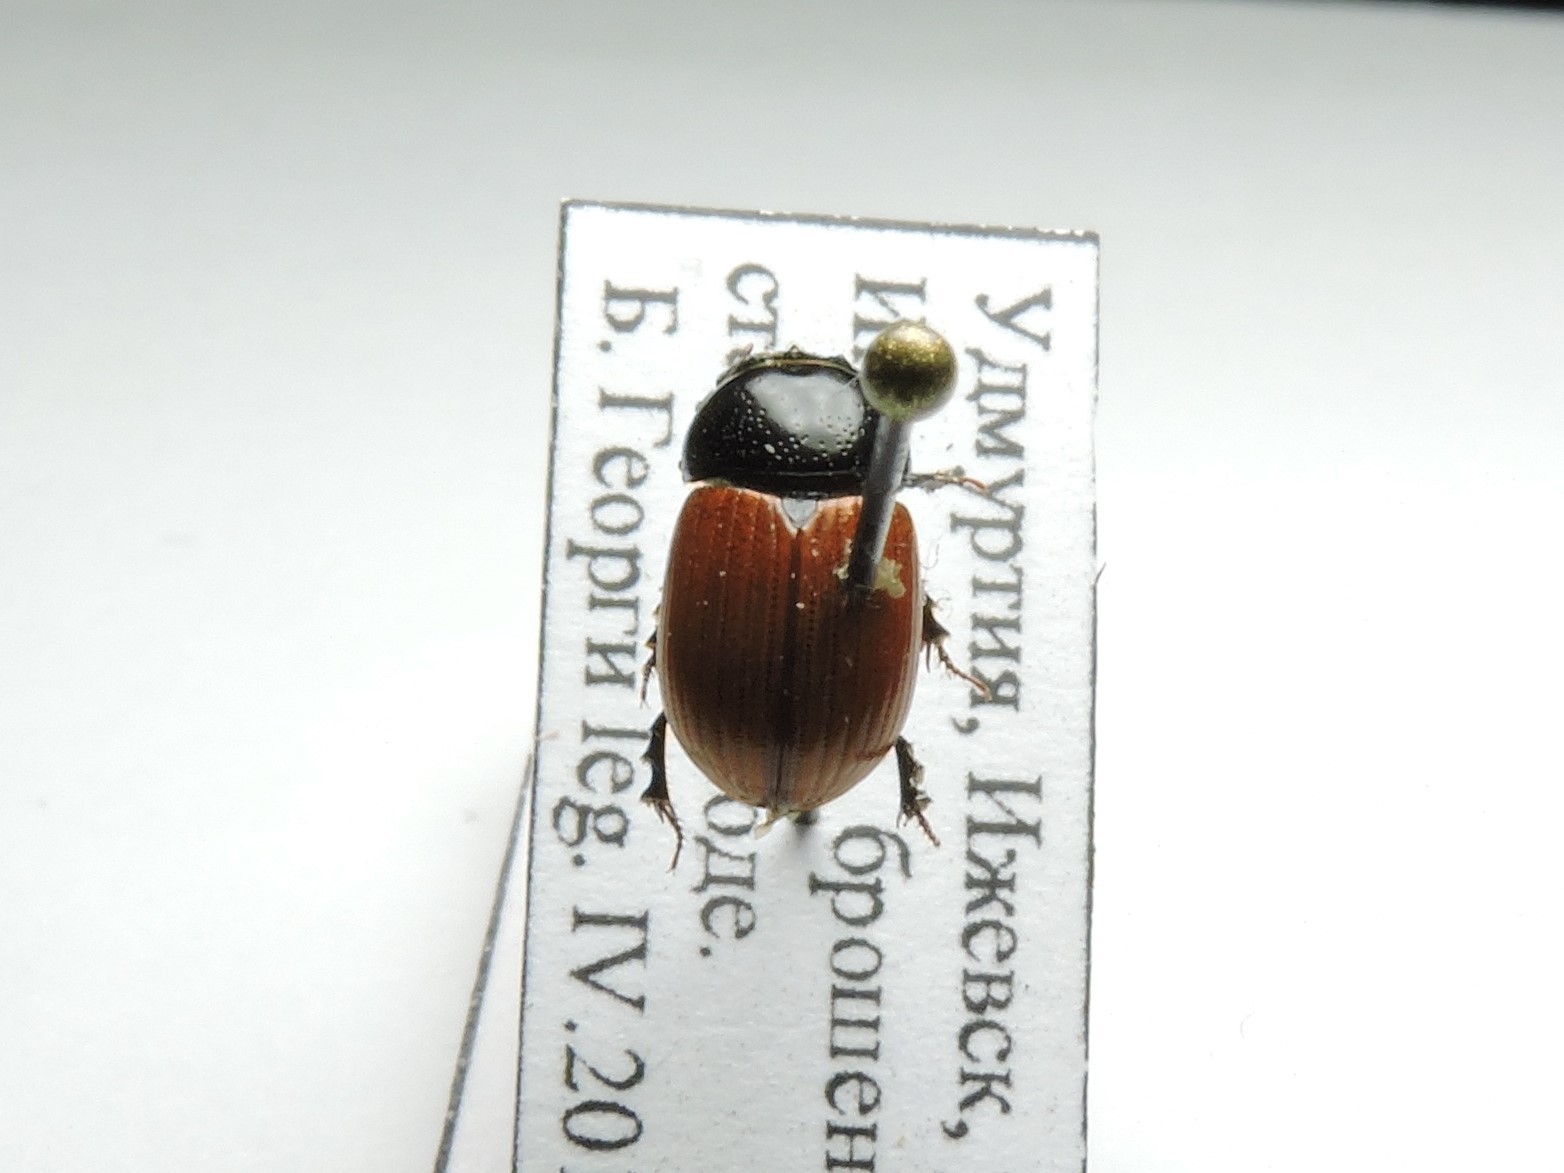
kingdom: Animalia
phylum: Arthropoda
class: Insecta
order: Coleoptera
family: Scarabaeidae
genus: Aphodius
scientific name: Aphodius fimetarius
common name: Common dung beetle
